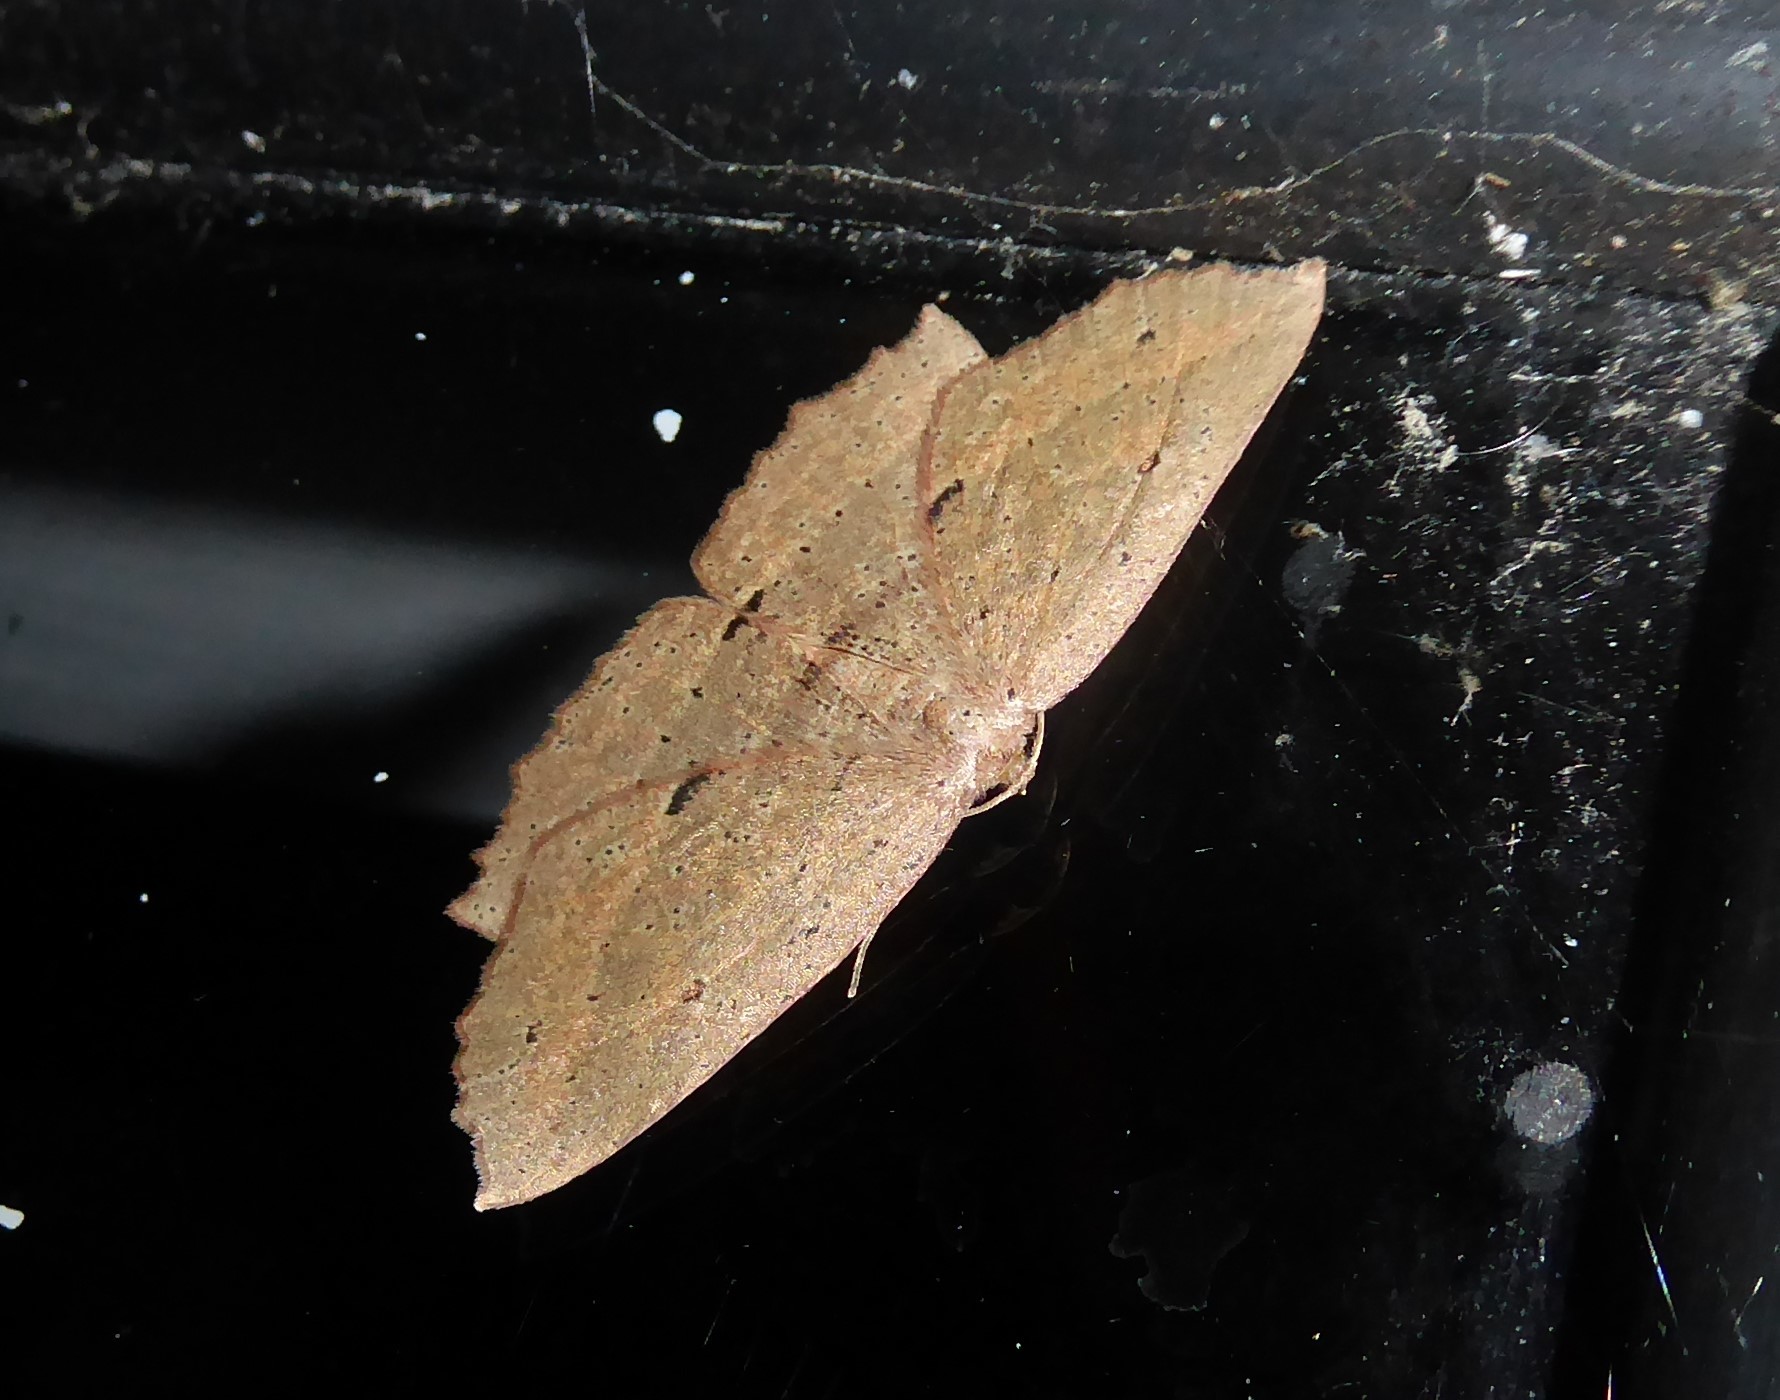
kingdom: Animalia
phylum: Arthropoda
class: Insecta
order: Lepidoptera
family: Geometridae
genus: Xyridacma
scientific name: Xyridacma veronicae
